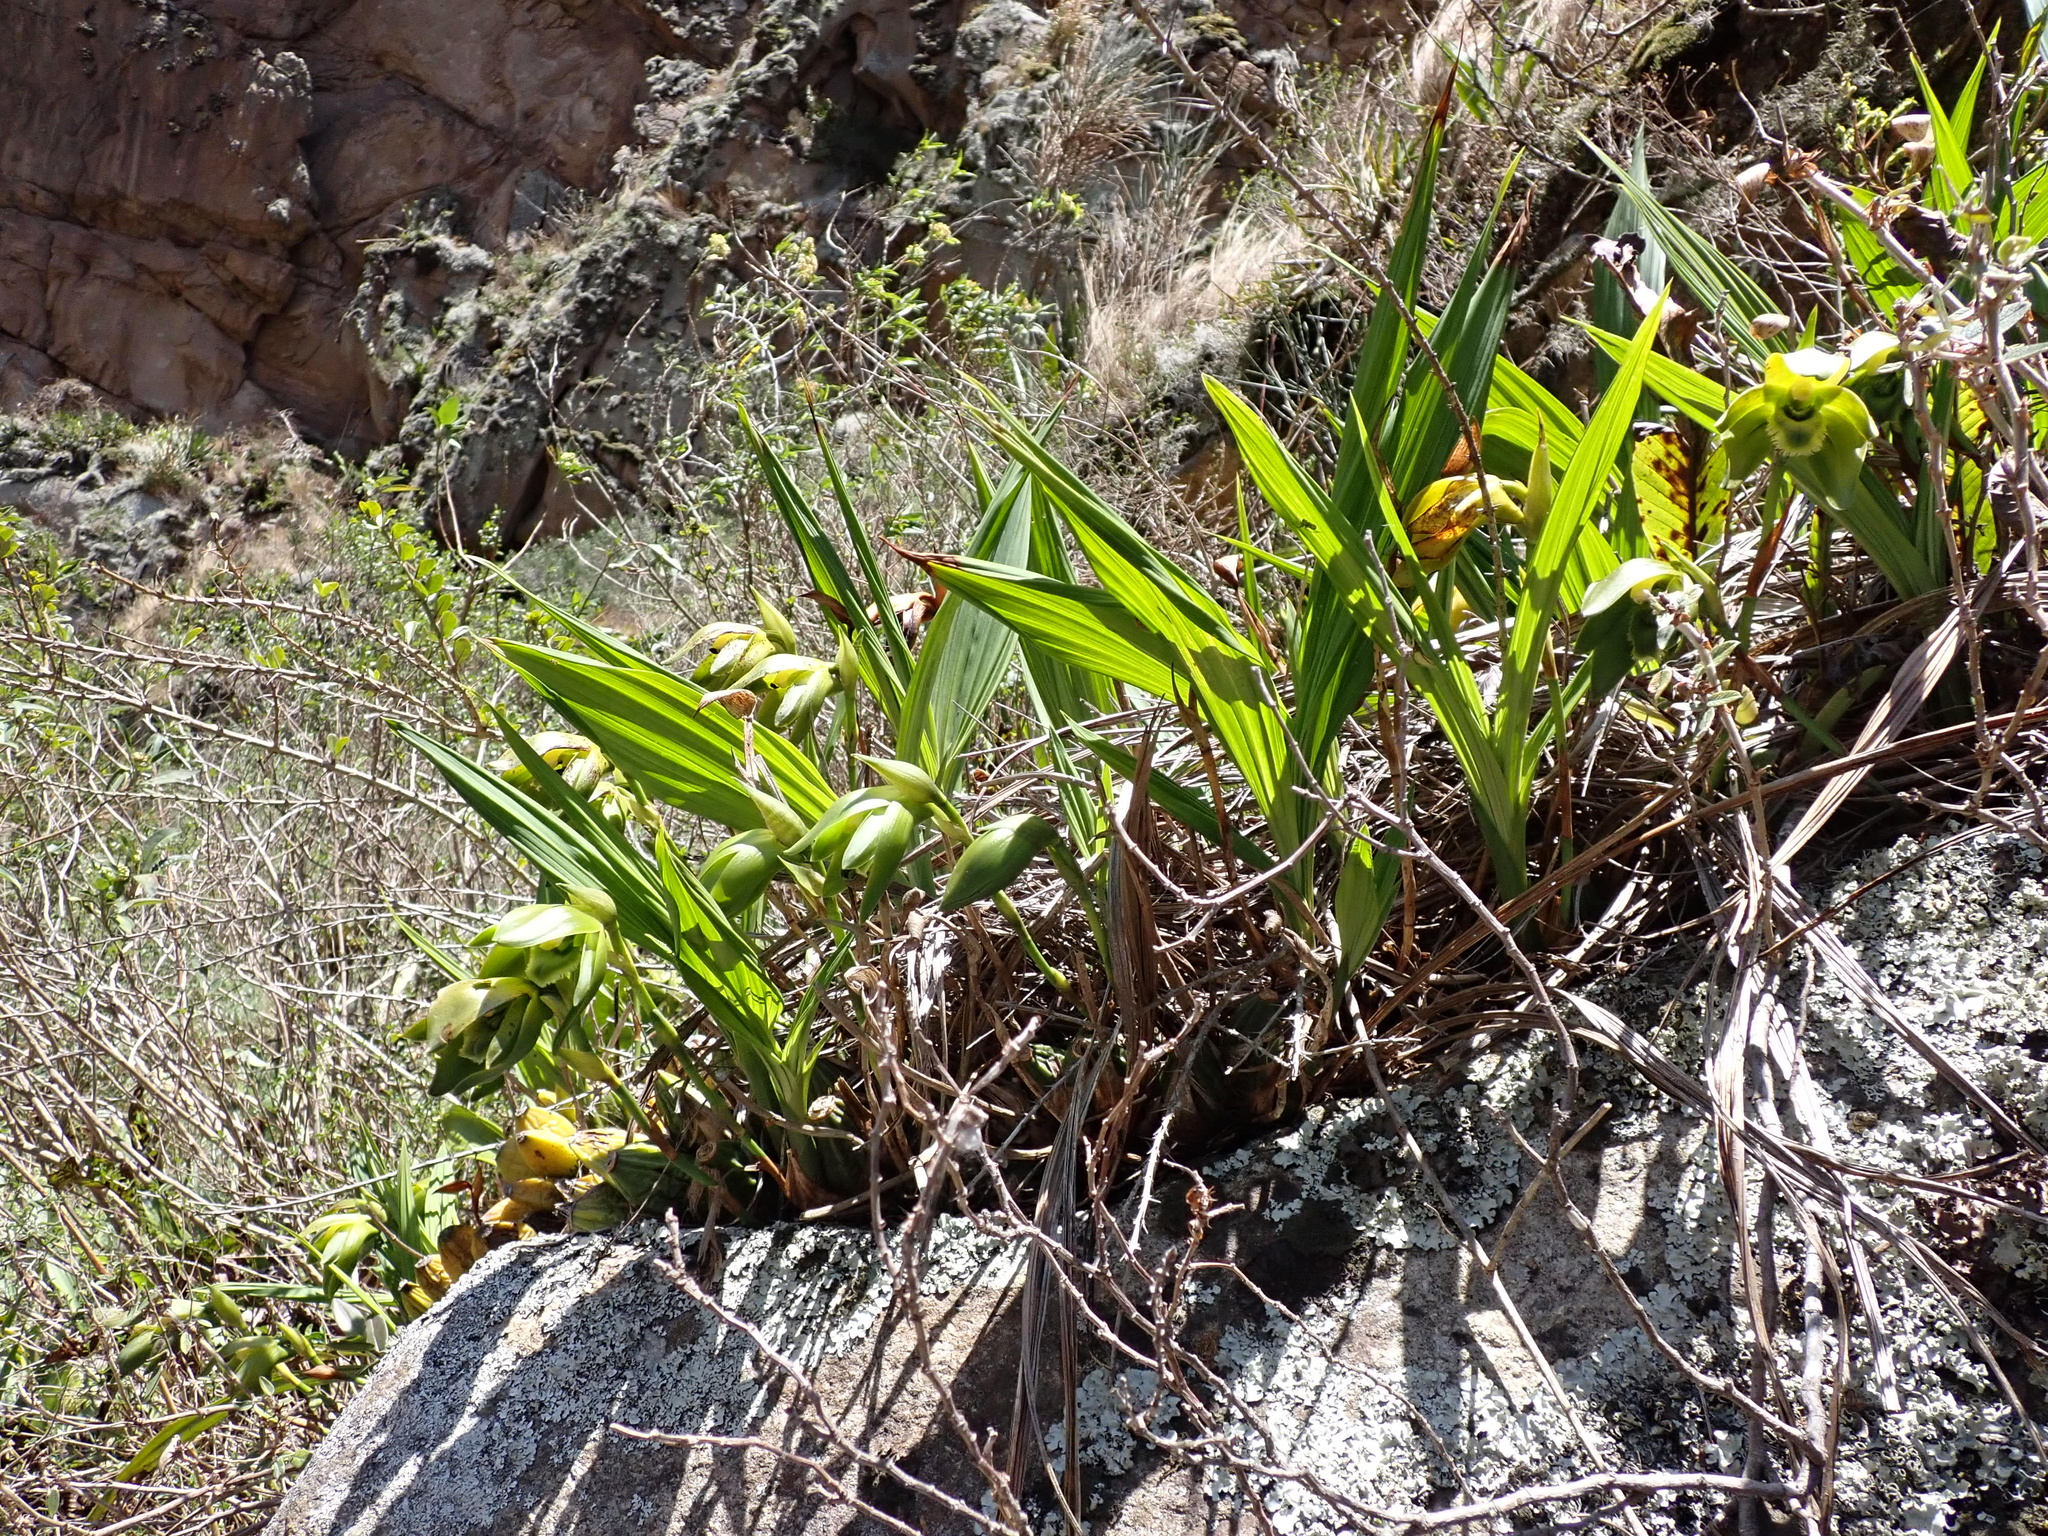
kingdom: Plantae
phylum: Tracheophyta
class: Liliopsida
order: Asparagales
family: Orchidaceae
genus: Ida
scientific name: Ida locusta
